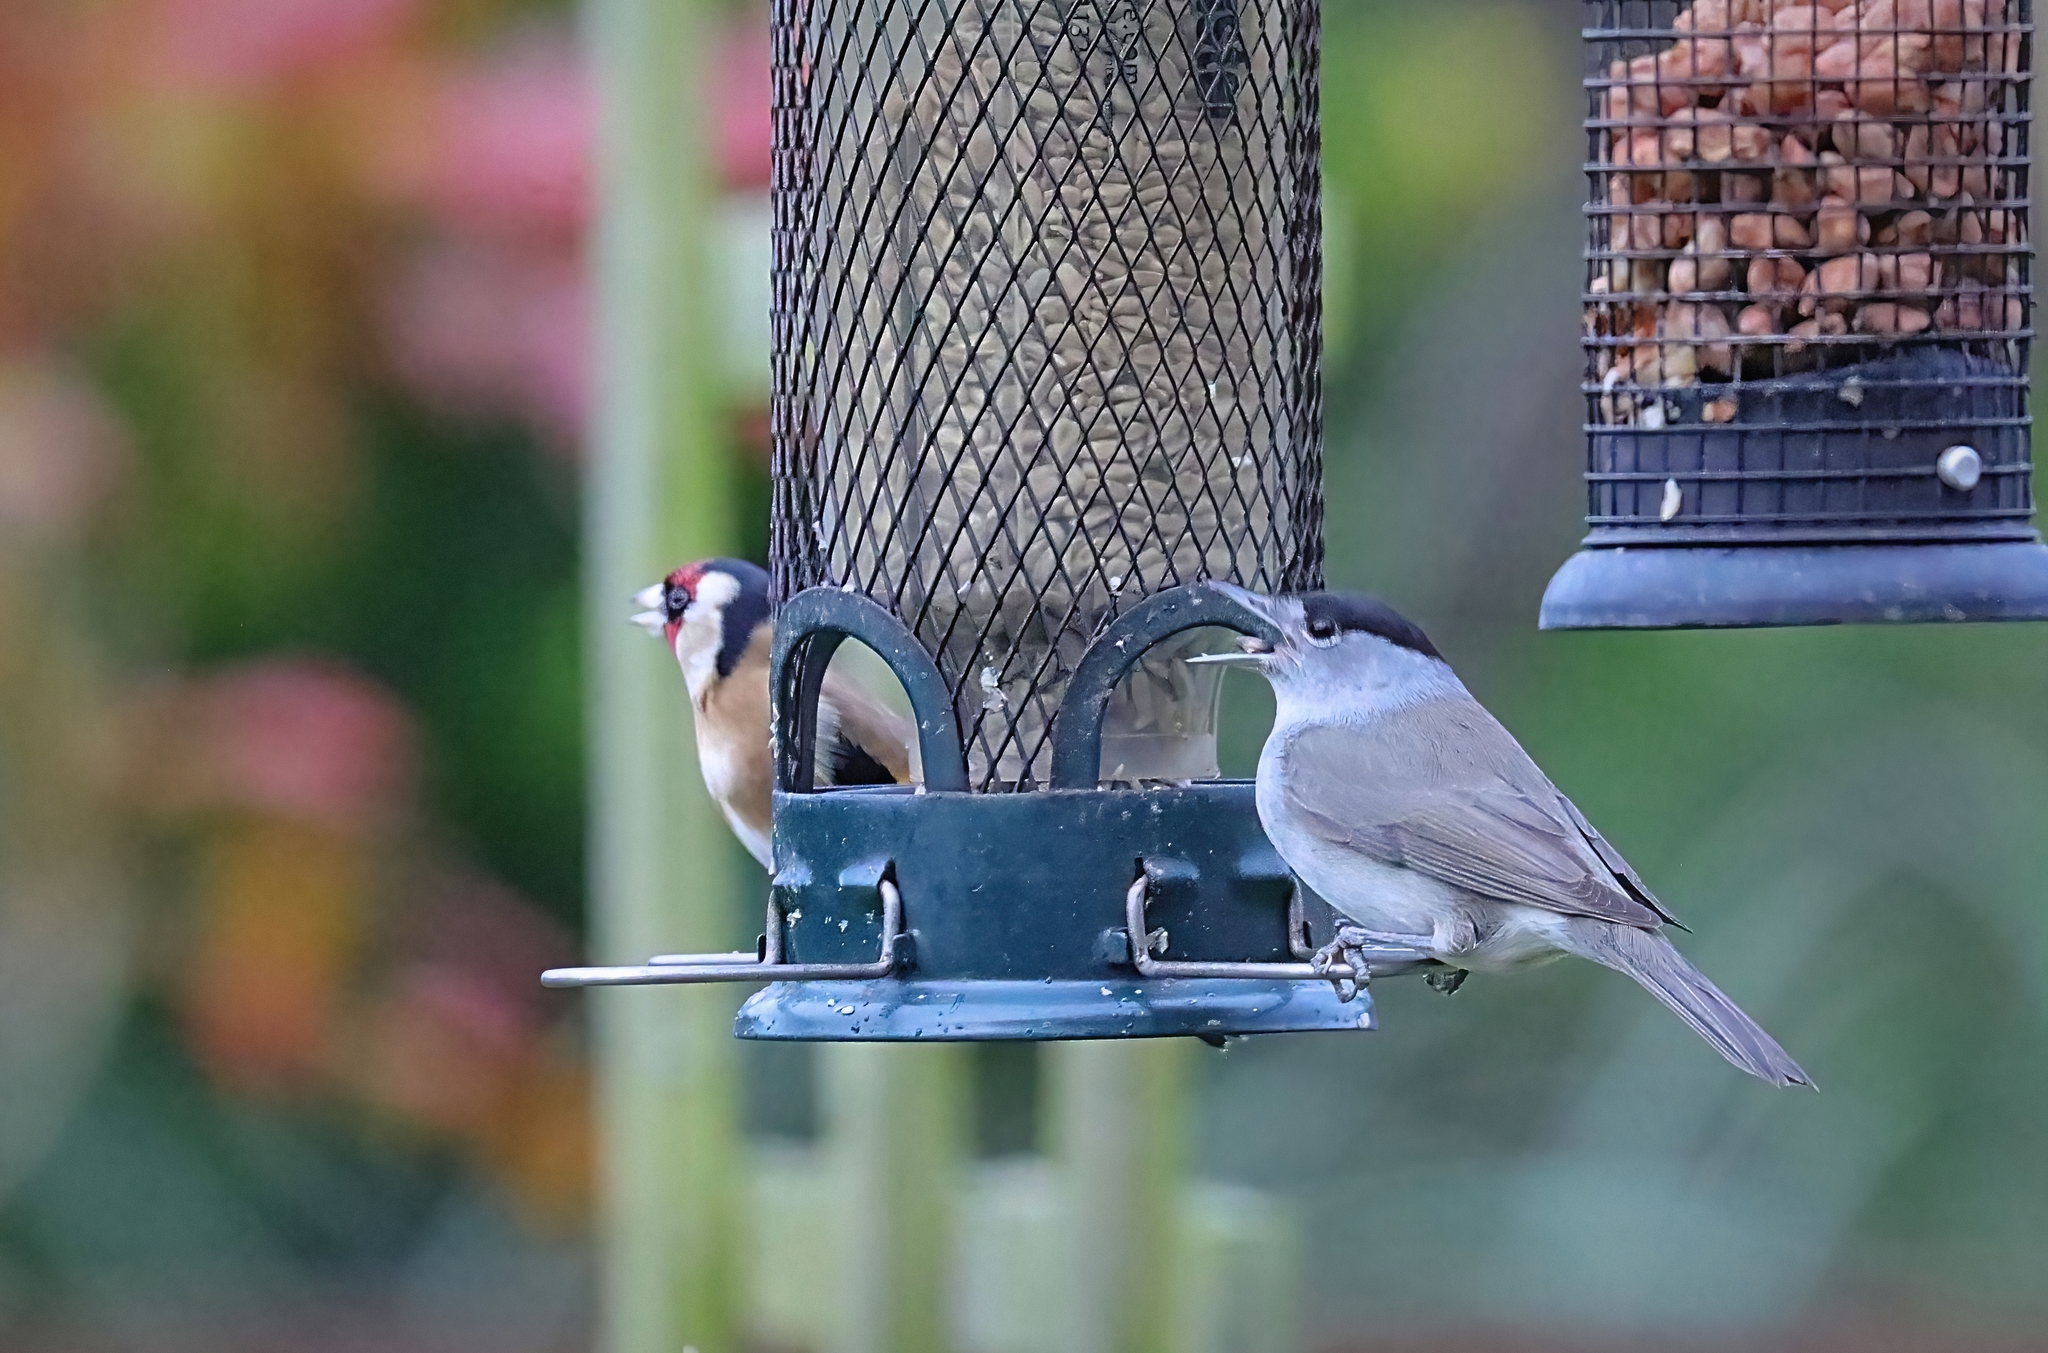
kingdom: Animalia
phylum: Chordata
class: Aves
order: Passeriformes
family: Sylviidae
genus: Sylvia
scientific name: Sylvia atricapilla
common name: Eurasian blackcap
